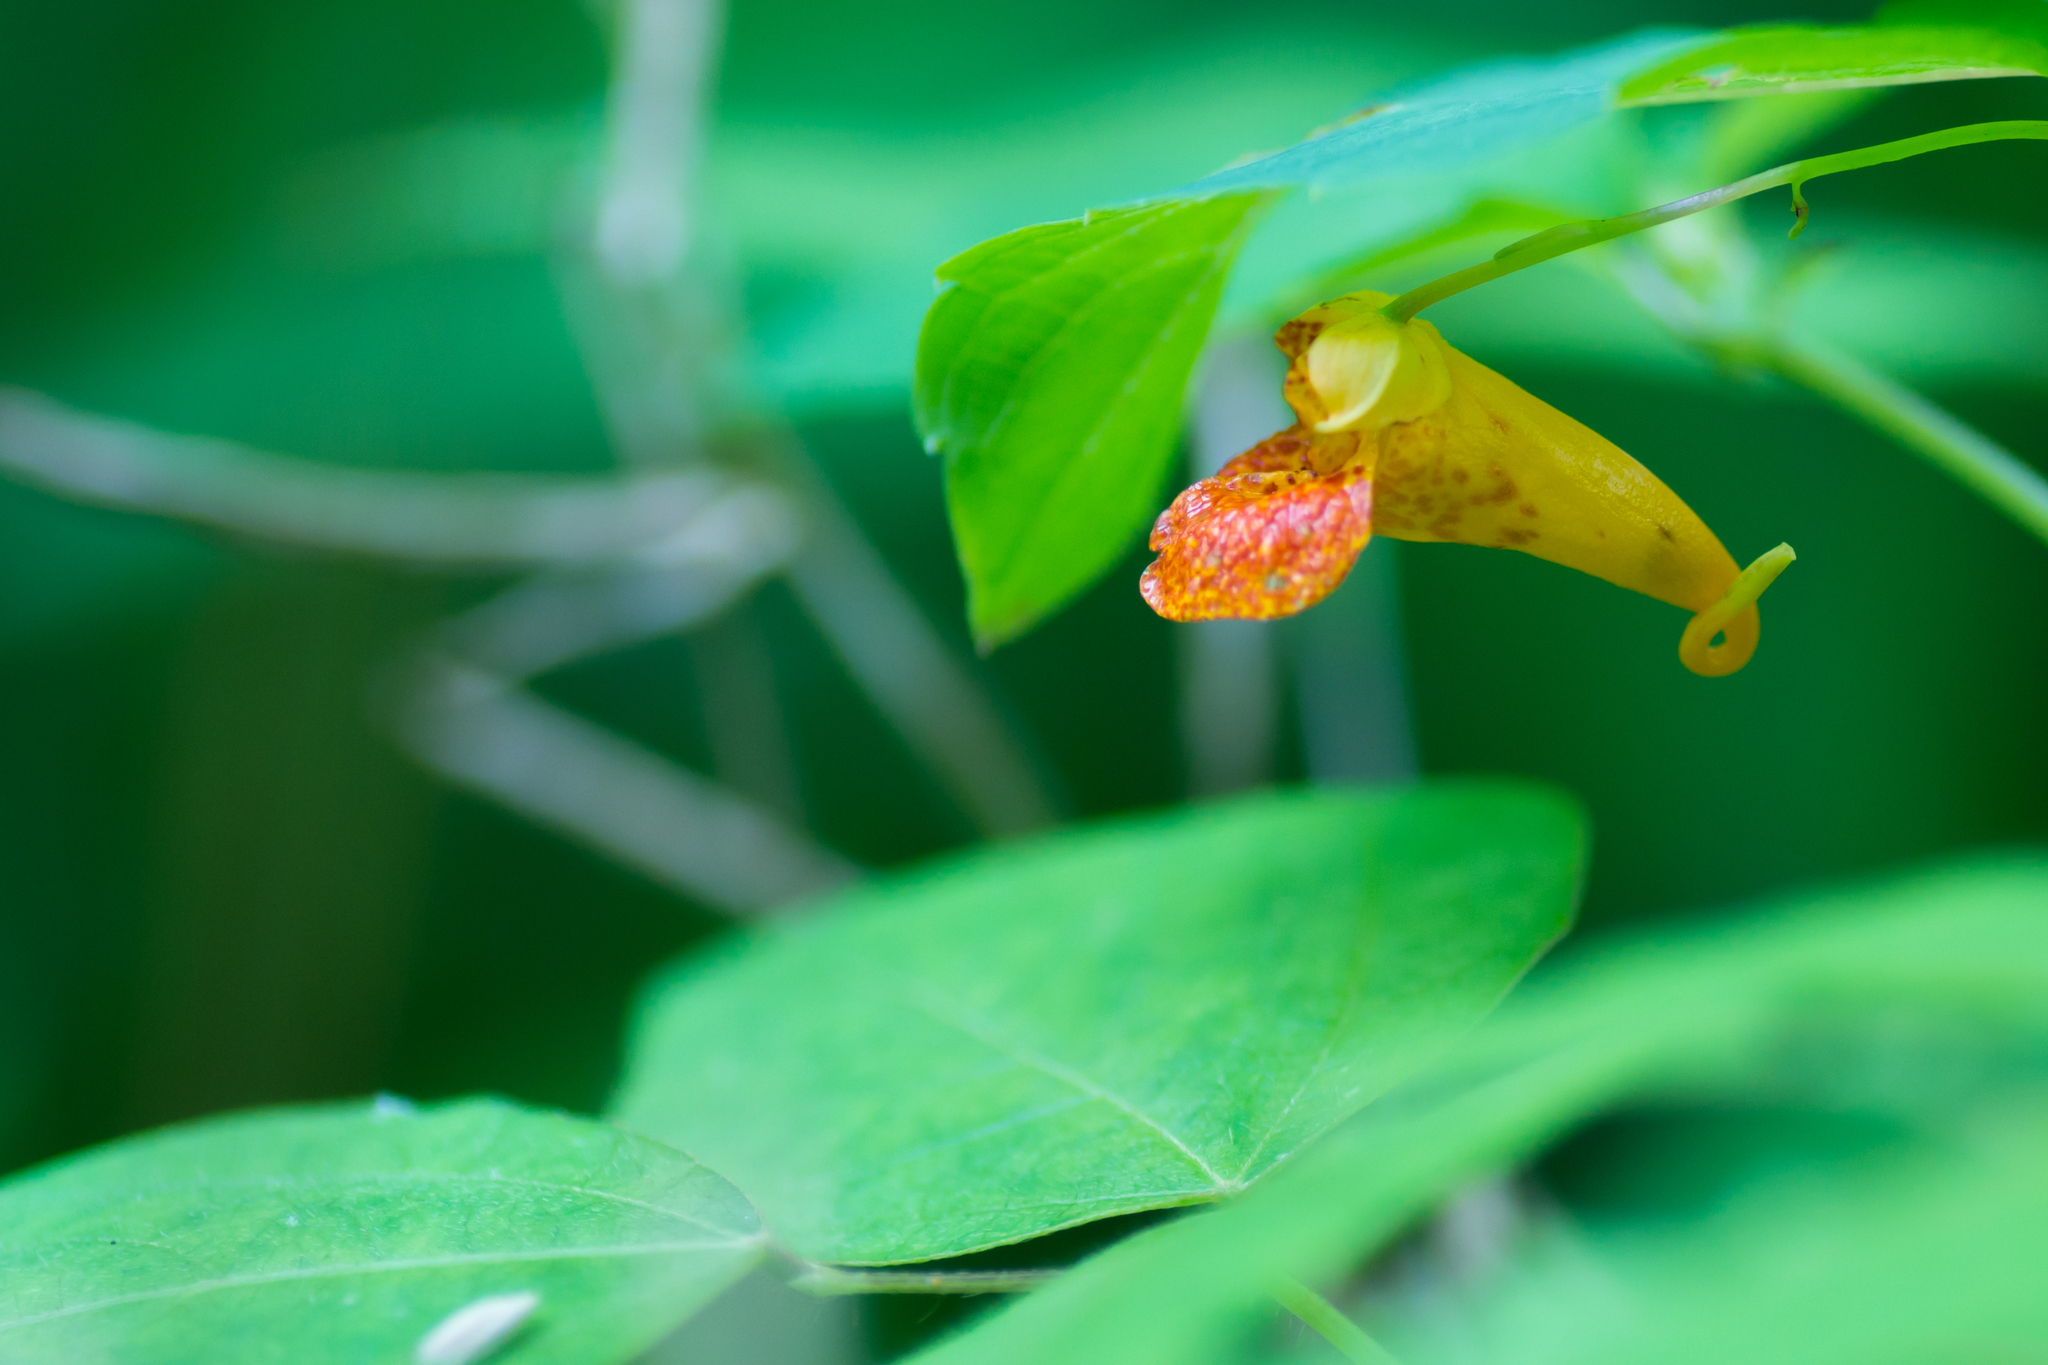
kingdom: Plantae
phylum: Tracheophyta
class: Magnoliopsida
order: Ericales
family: Balsaminaceae
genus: Impatiens
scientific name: Impatiens capensis
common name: Orange balsam
